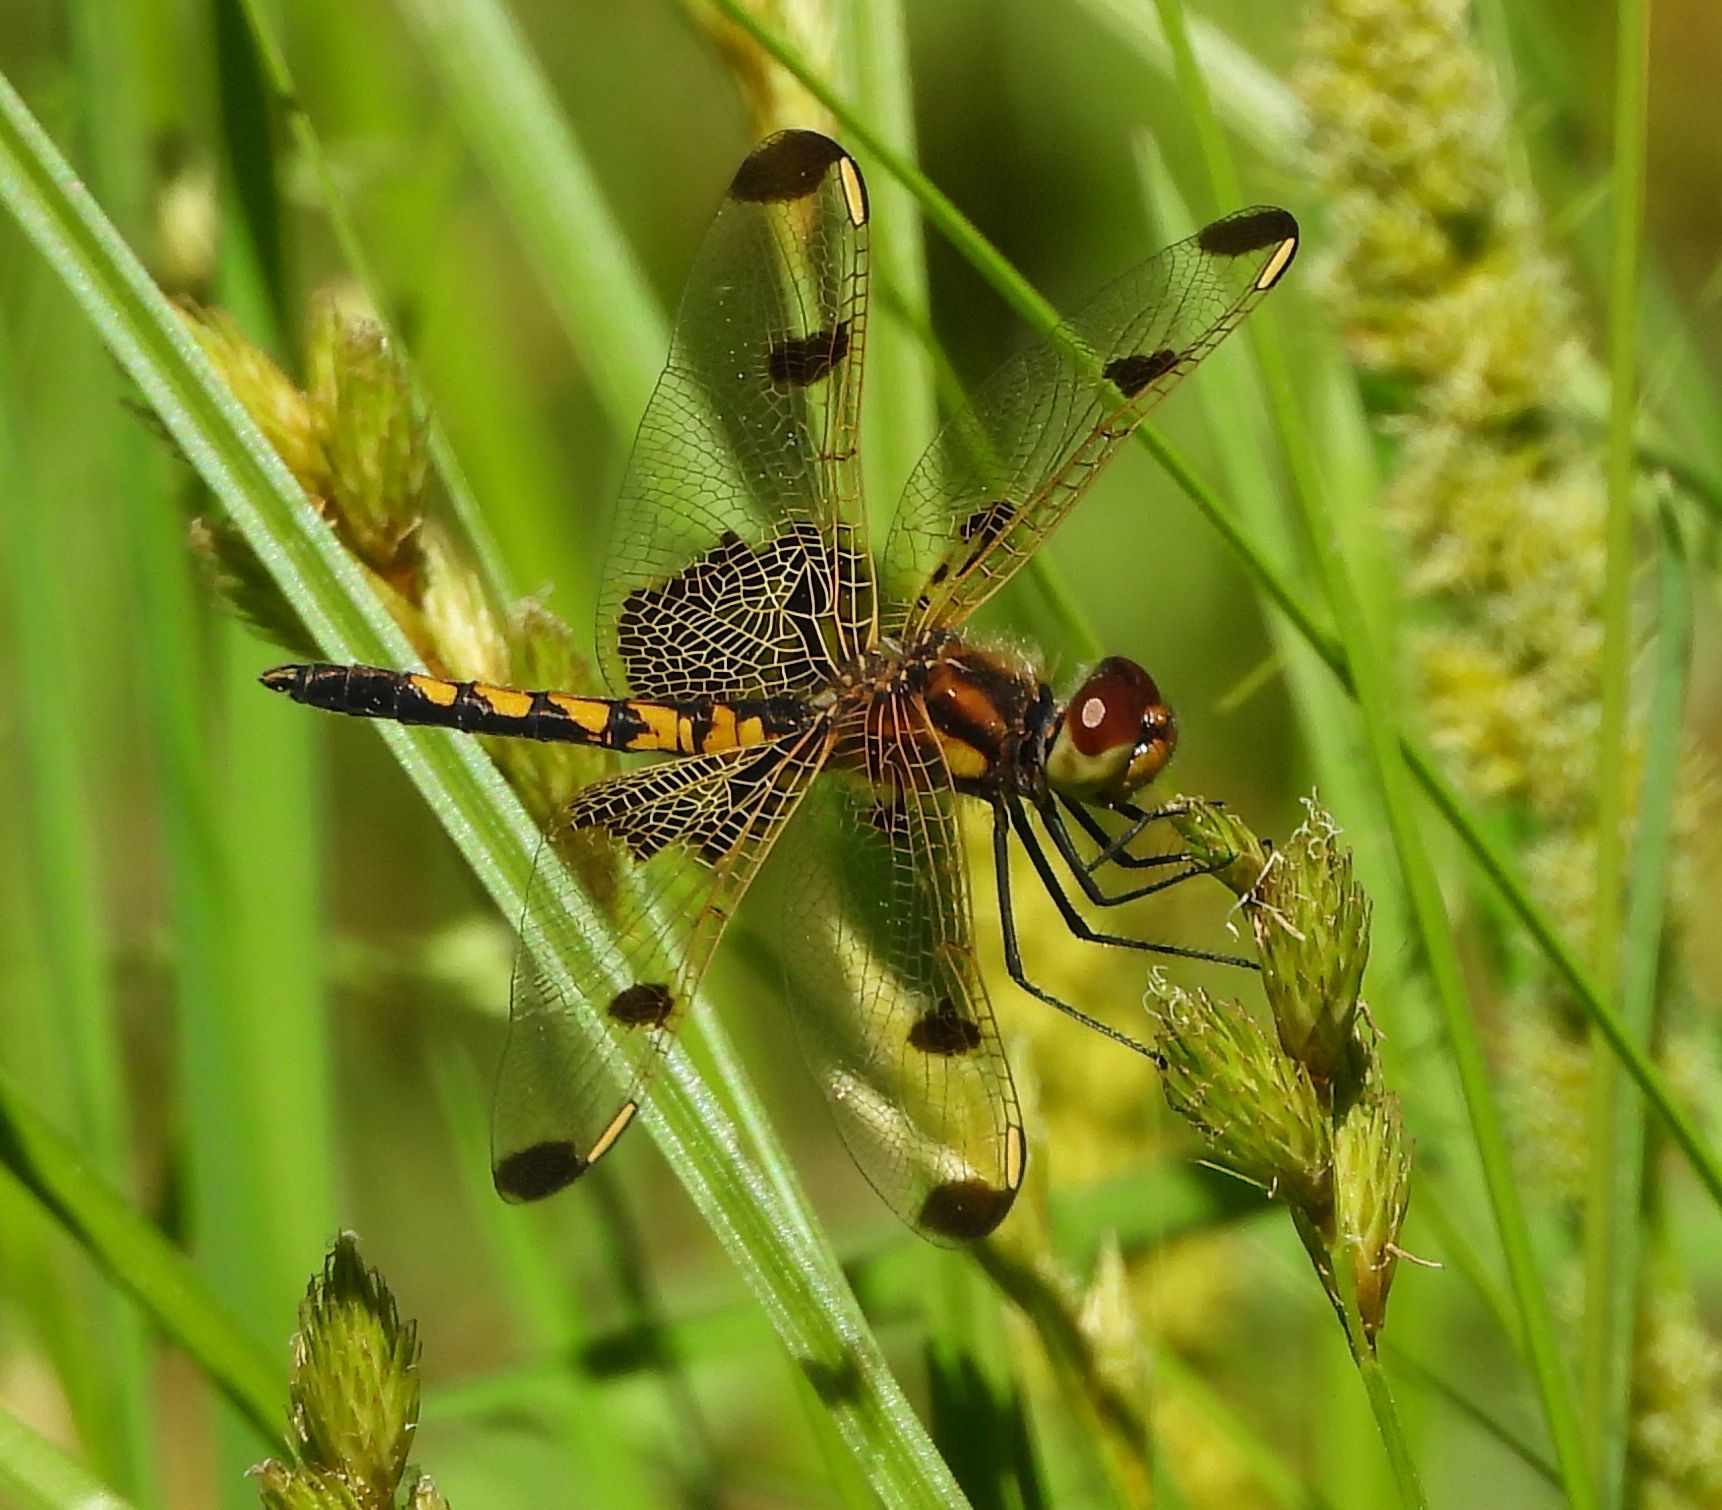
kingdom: Animalia
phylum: Arthropoda
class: Insecta
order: Odonata
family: Libellulidae
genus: Celithemis
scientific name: Celithemis elisa
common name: Calico pennant
